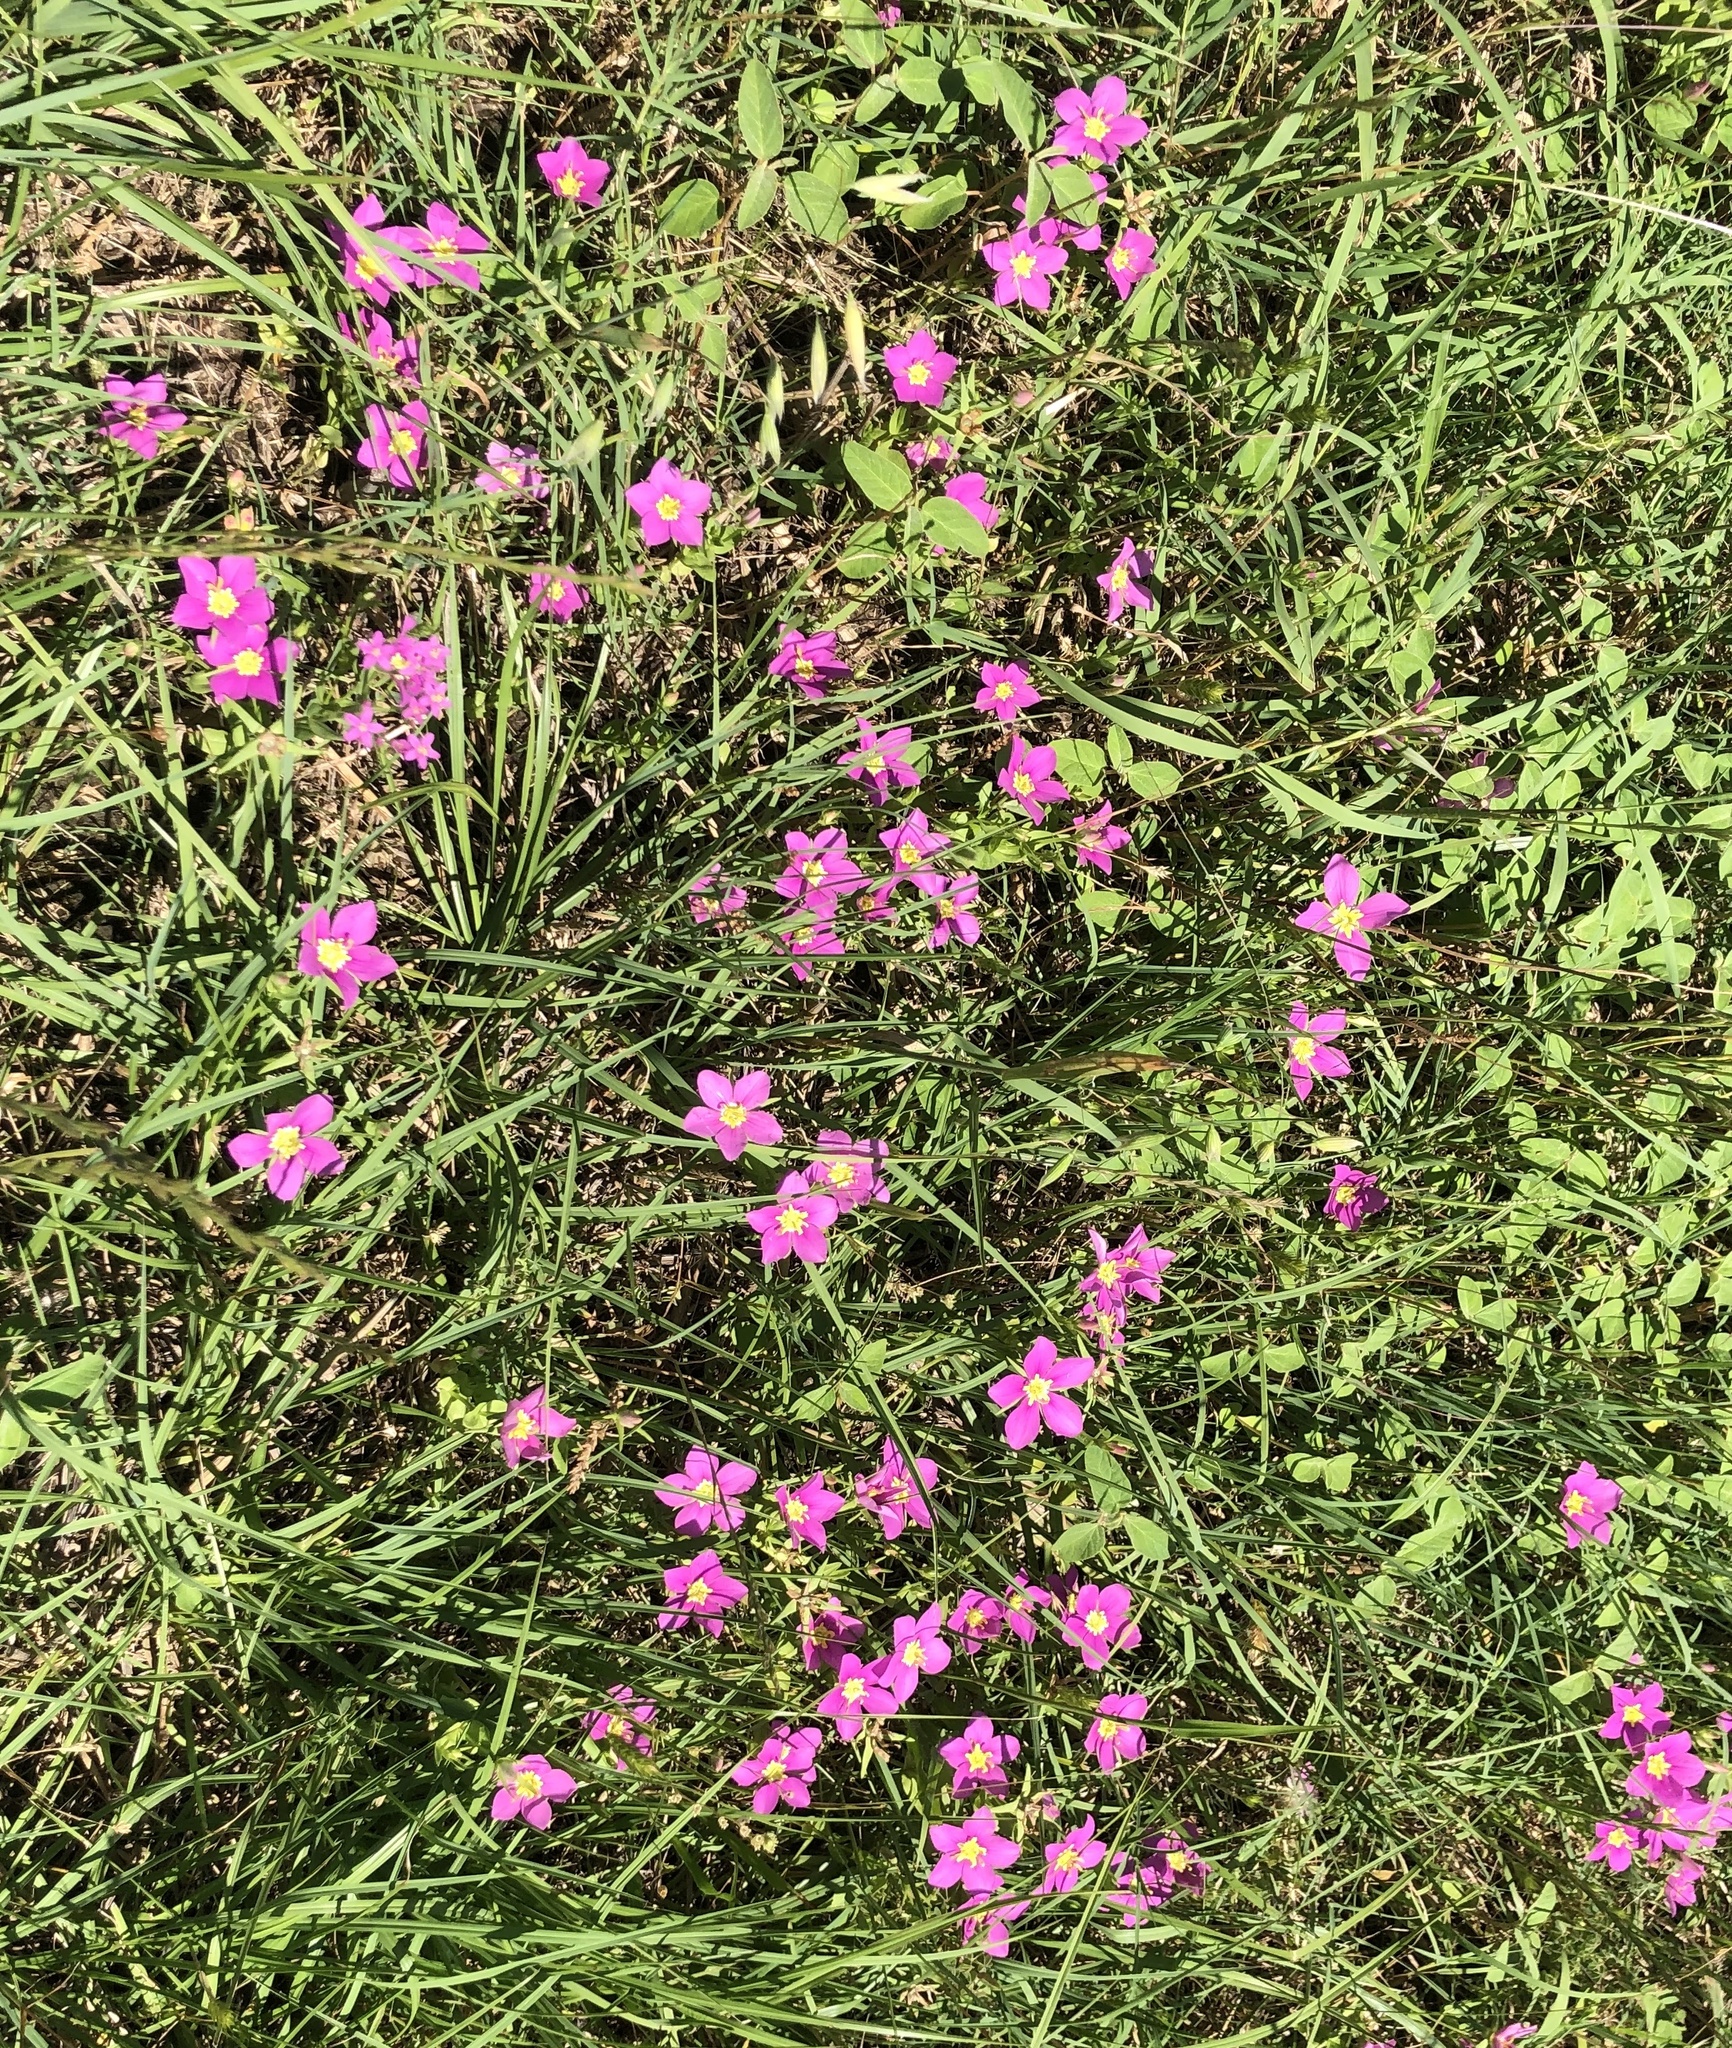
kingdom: Plantae
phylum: Tracheophyta
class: Magnoliopsida
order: Gentianales
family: Gentianaceae
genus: Sabatia
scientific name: Sabatia campestris
